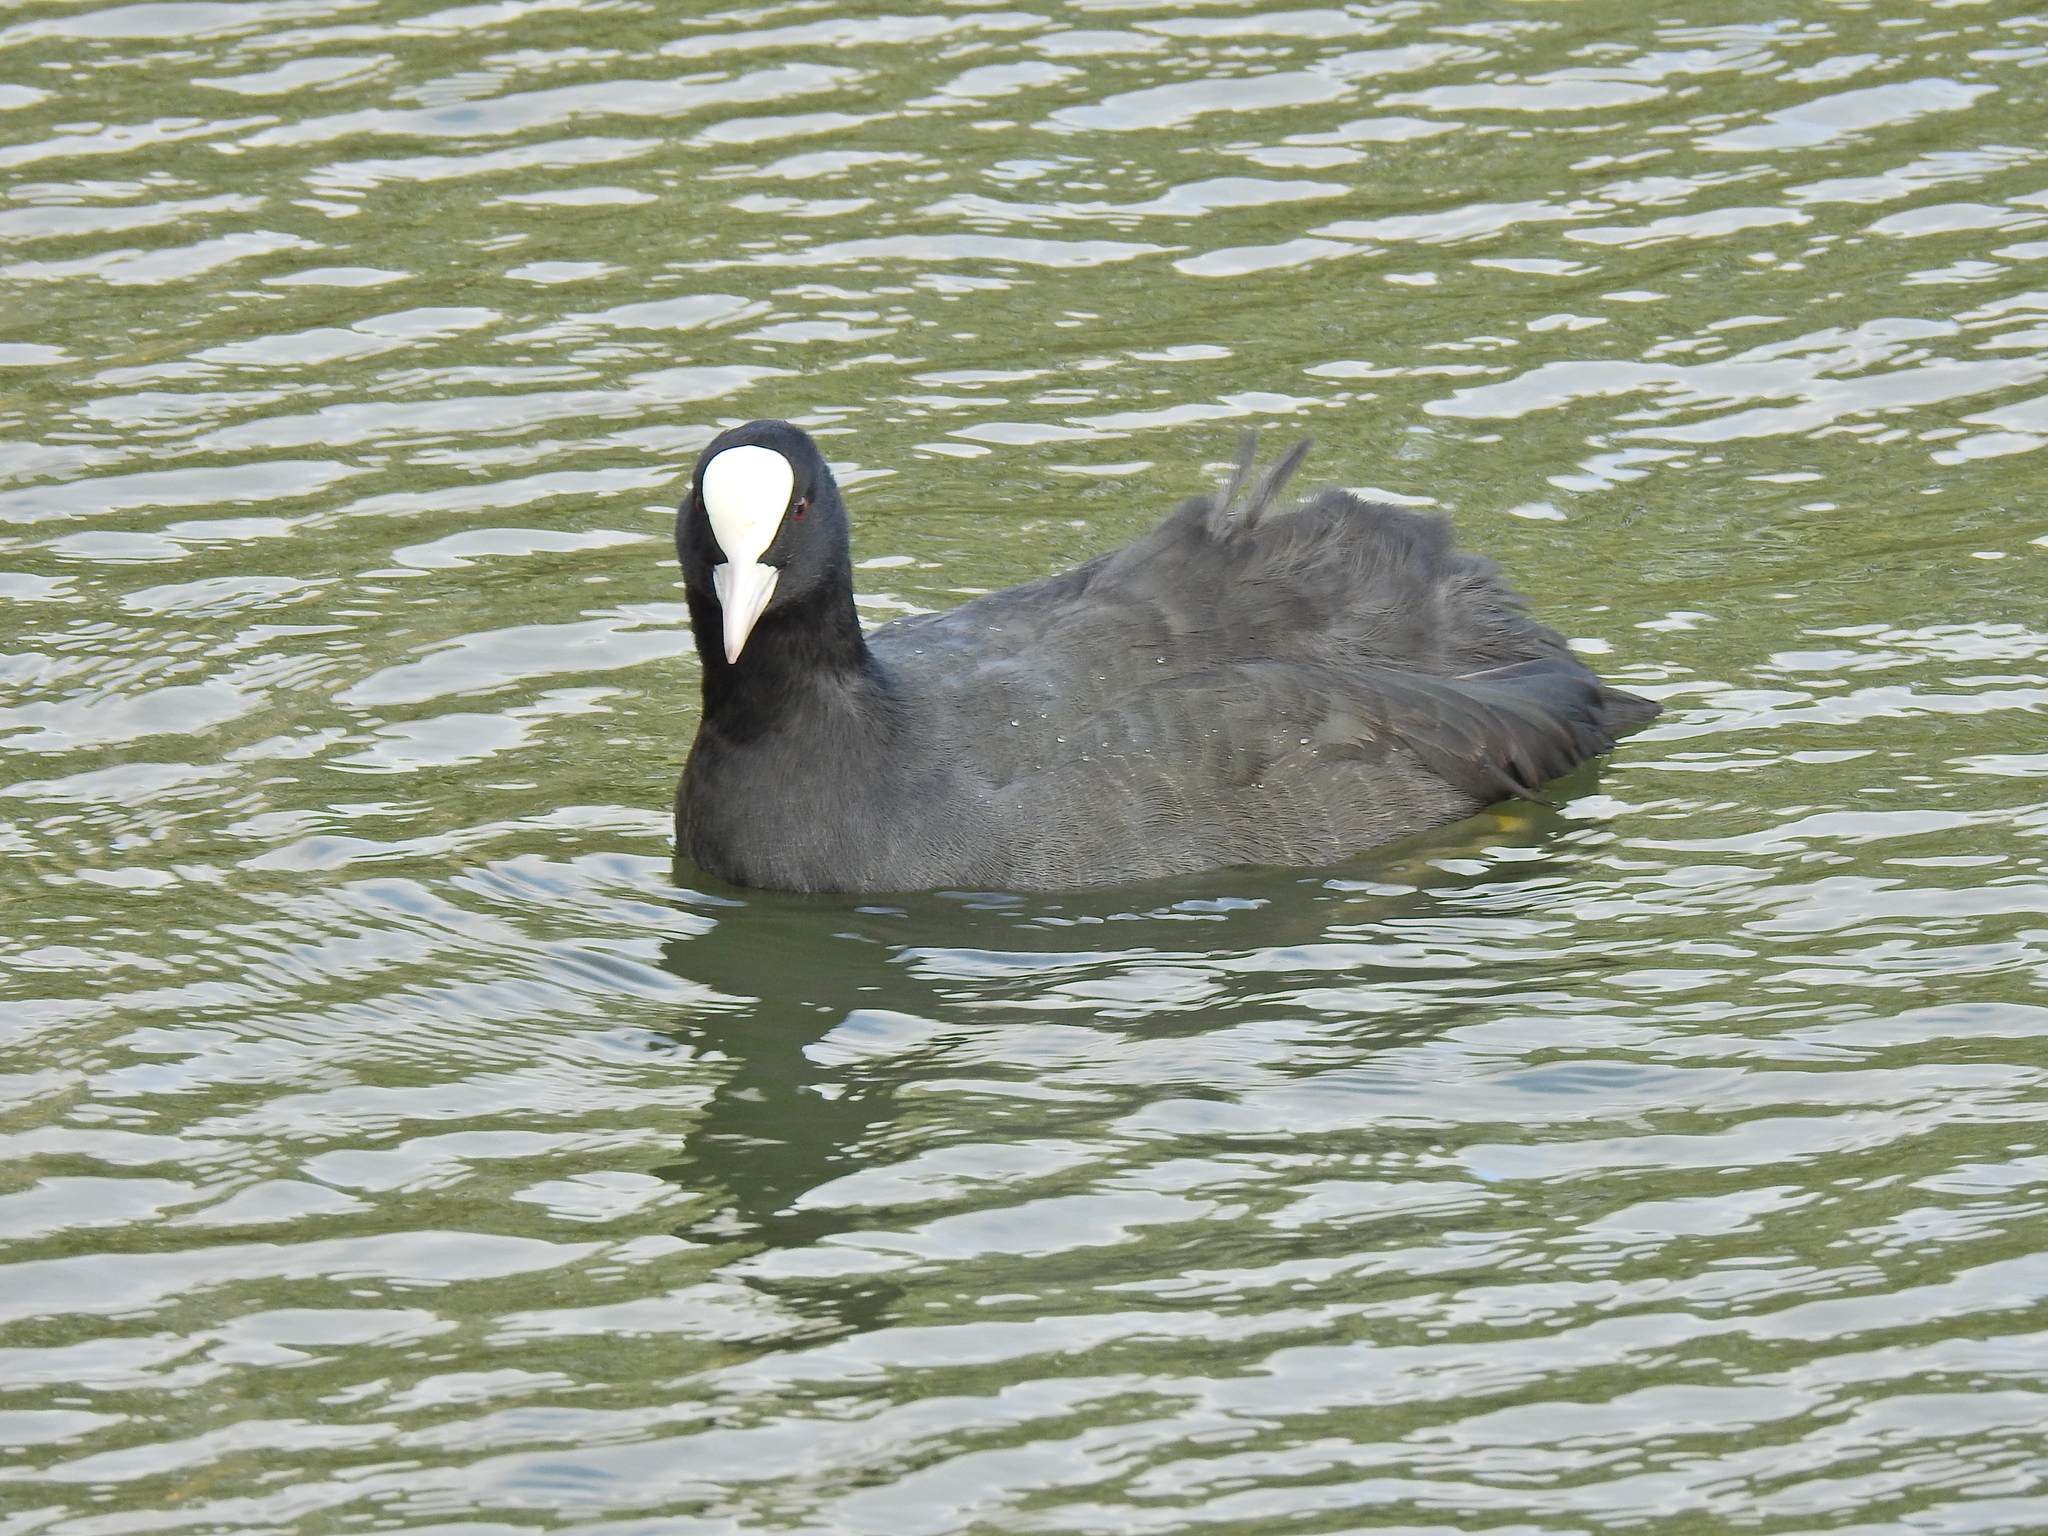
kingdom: Animalia
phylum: Chordata
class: Aves
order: Gruiformes
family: Rallidae
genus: Fulica
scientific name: Fulica atra
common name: Eurasian coot
